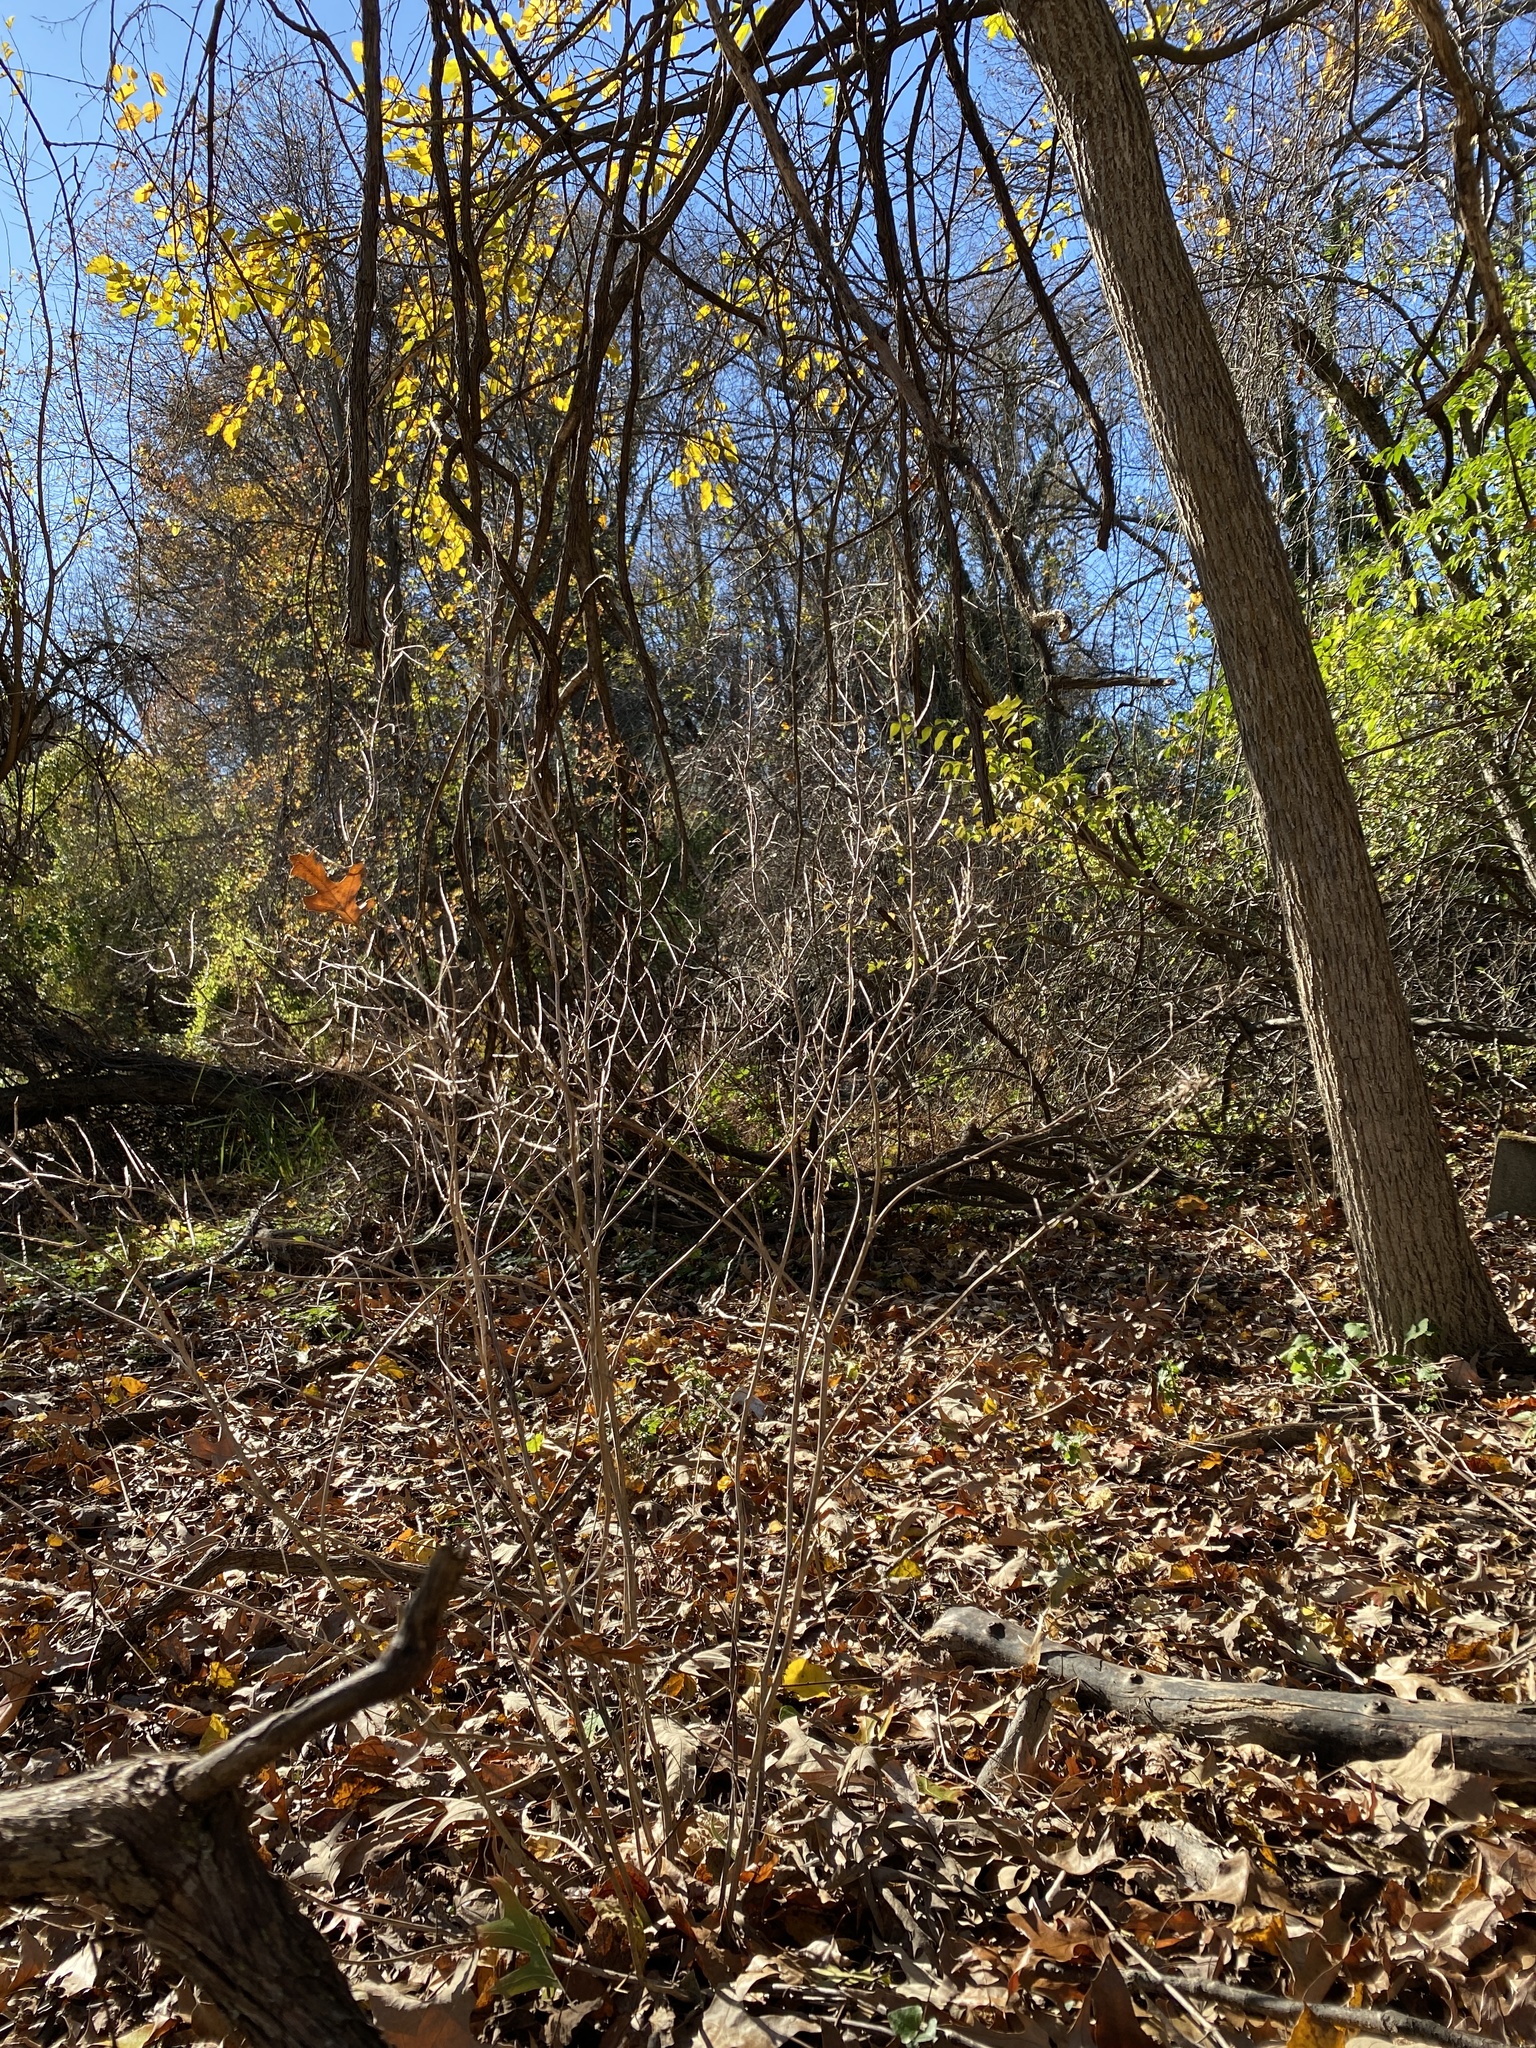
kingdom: Plantae
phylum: Tracheophyta
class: Magnoliopsida
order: Brassicales
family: Brassicaceae
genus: Alliaria
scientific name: Alliaria petiolata
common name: Garlic mustard
